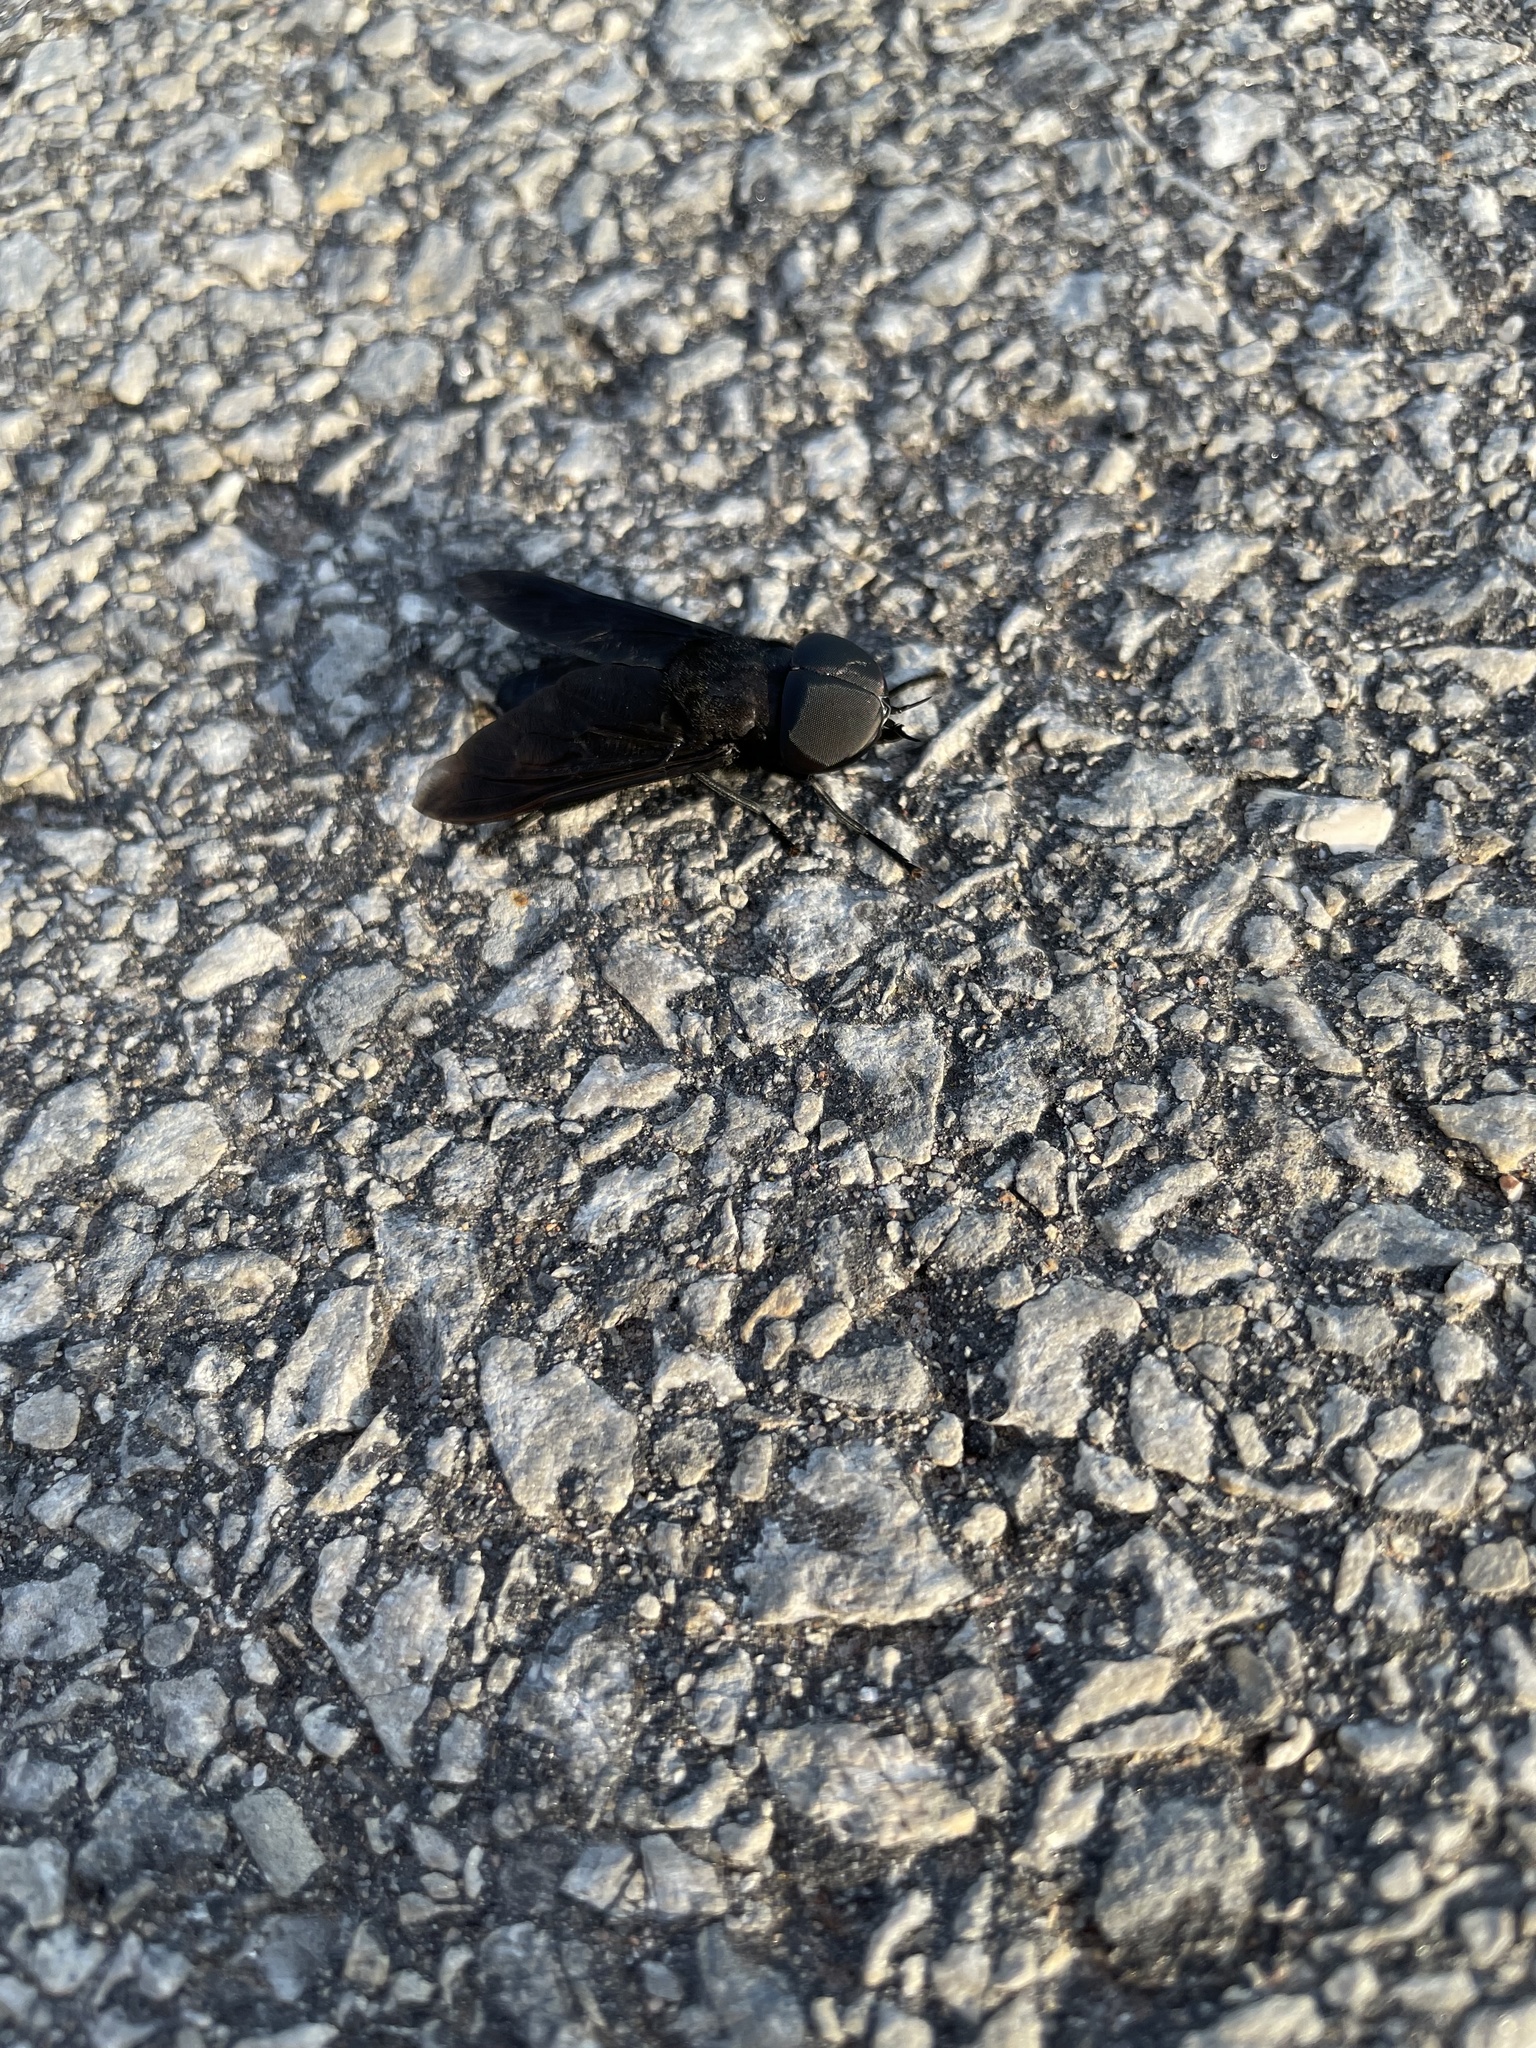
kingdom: Animalia
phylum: Arthropoda
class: Insecta
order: Diptera
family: Tabanidae
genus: Tabanus
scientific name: Tabanus atratus
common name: Black horse fly
